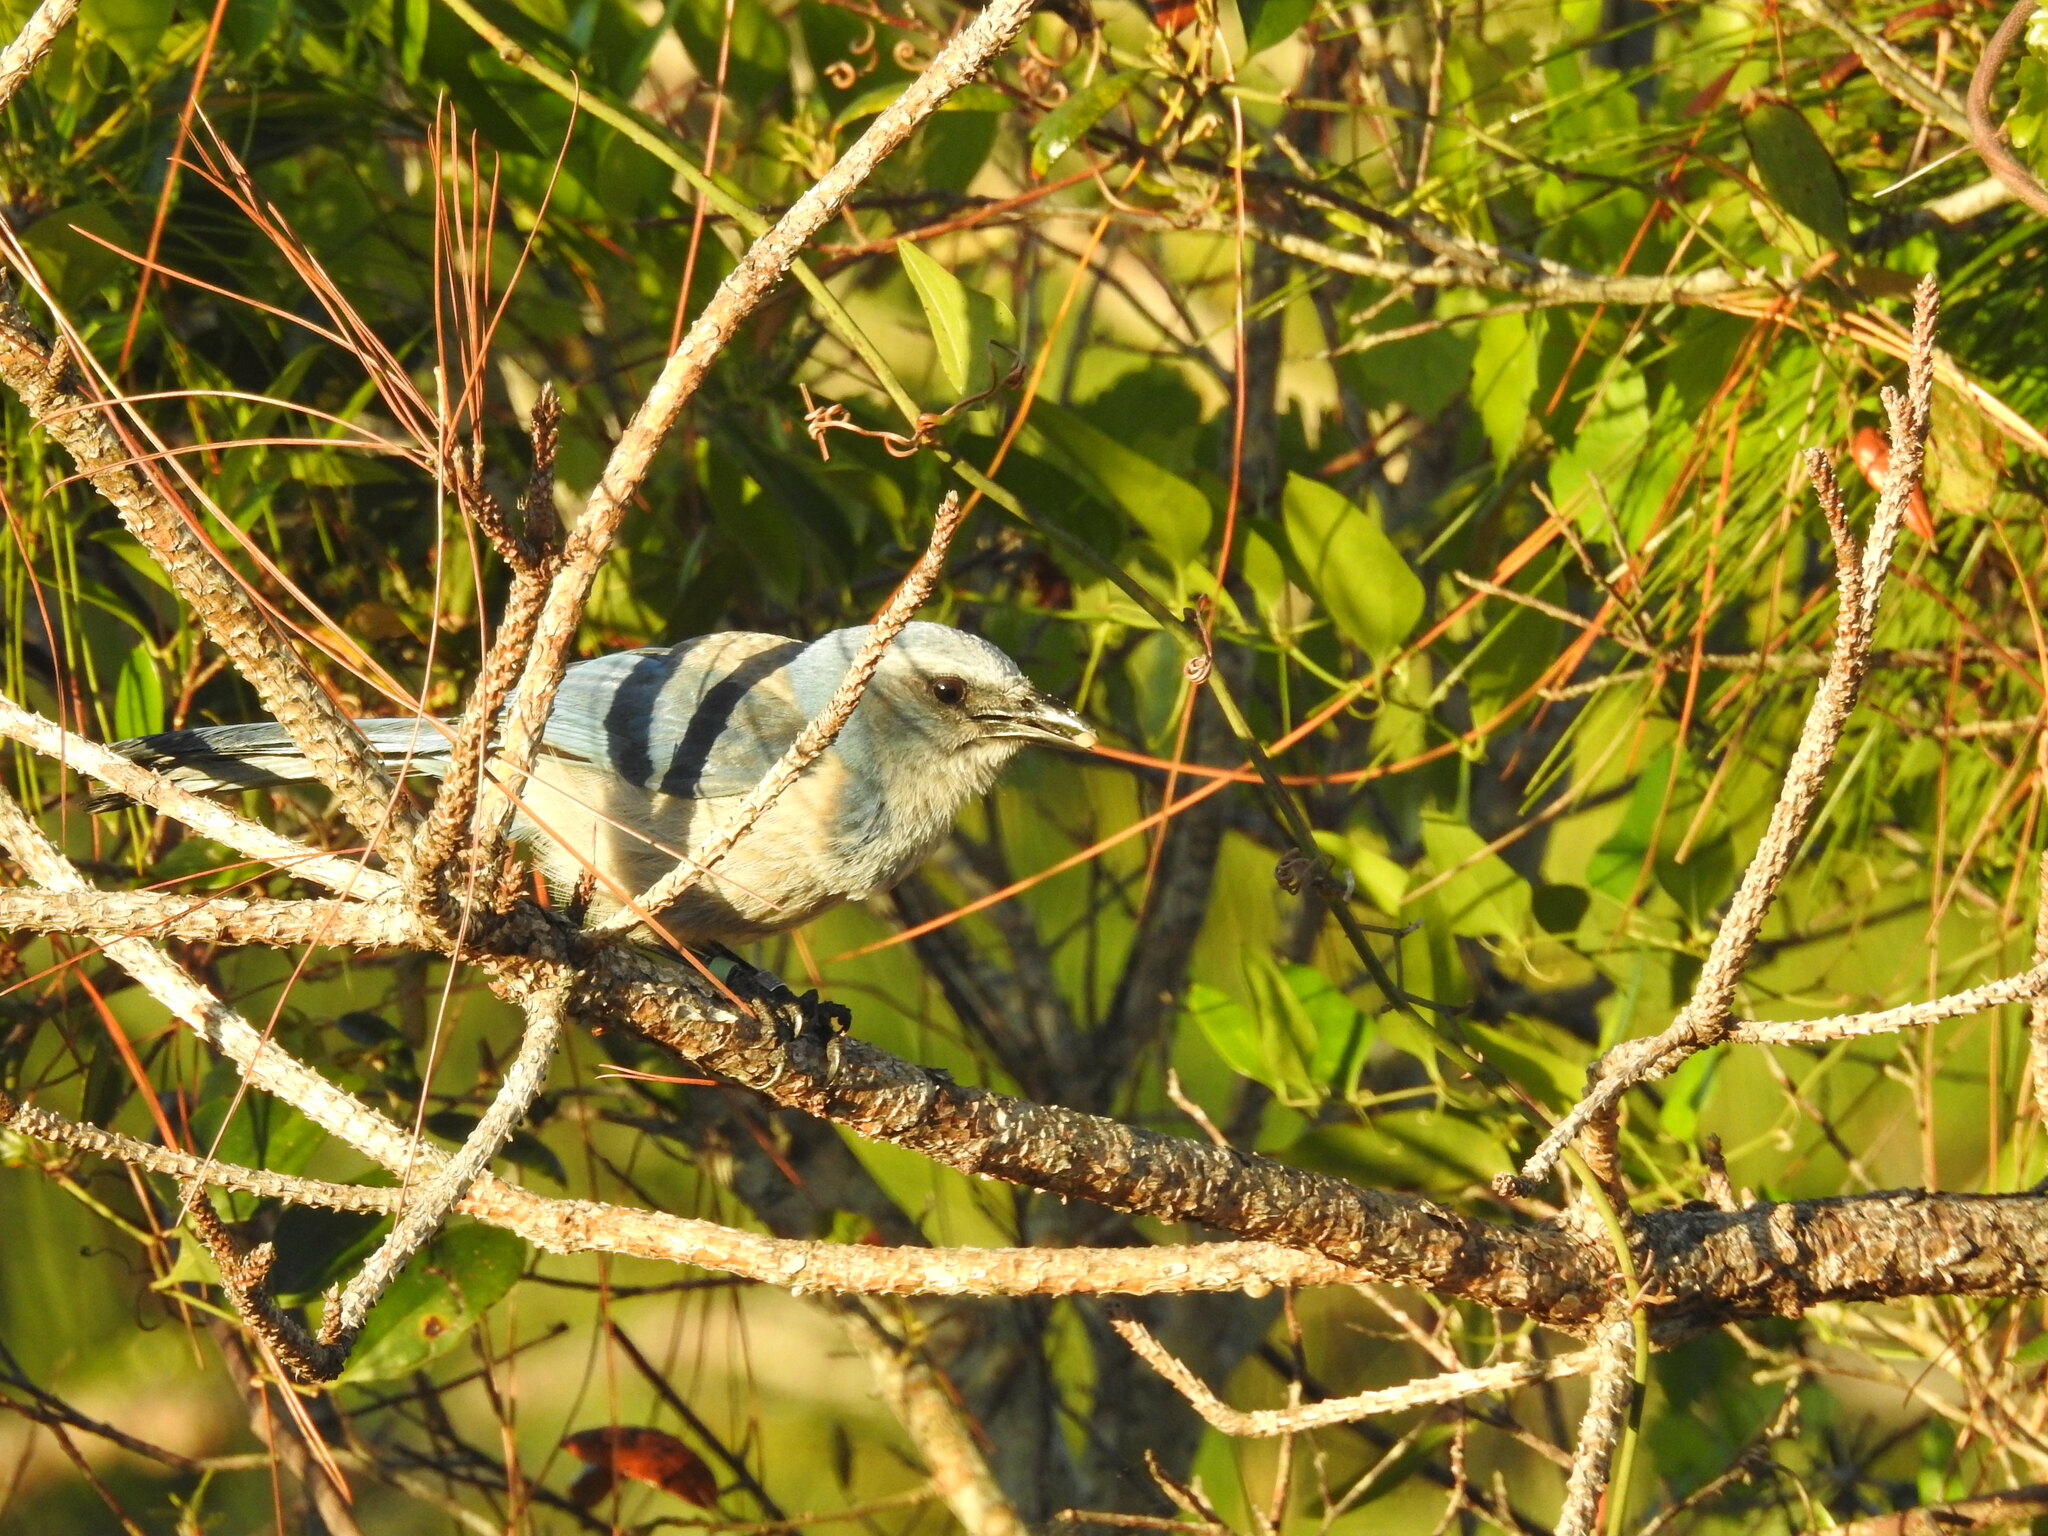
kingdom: Animalia
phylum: Chordata
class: Aves
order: Passeriformes
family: Corvidae
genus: Aphelocoma
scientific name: Aphelocoma coerulescens
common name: Florida scrub jay
